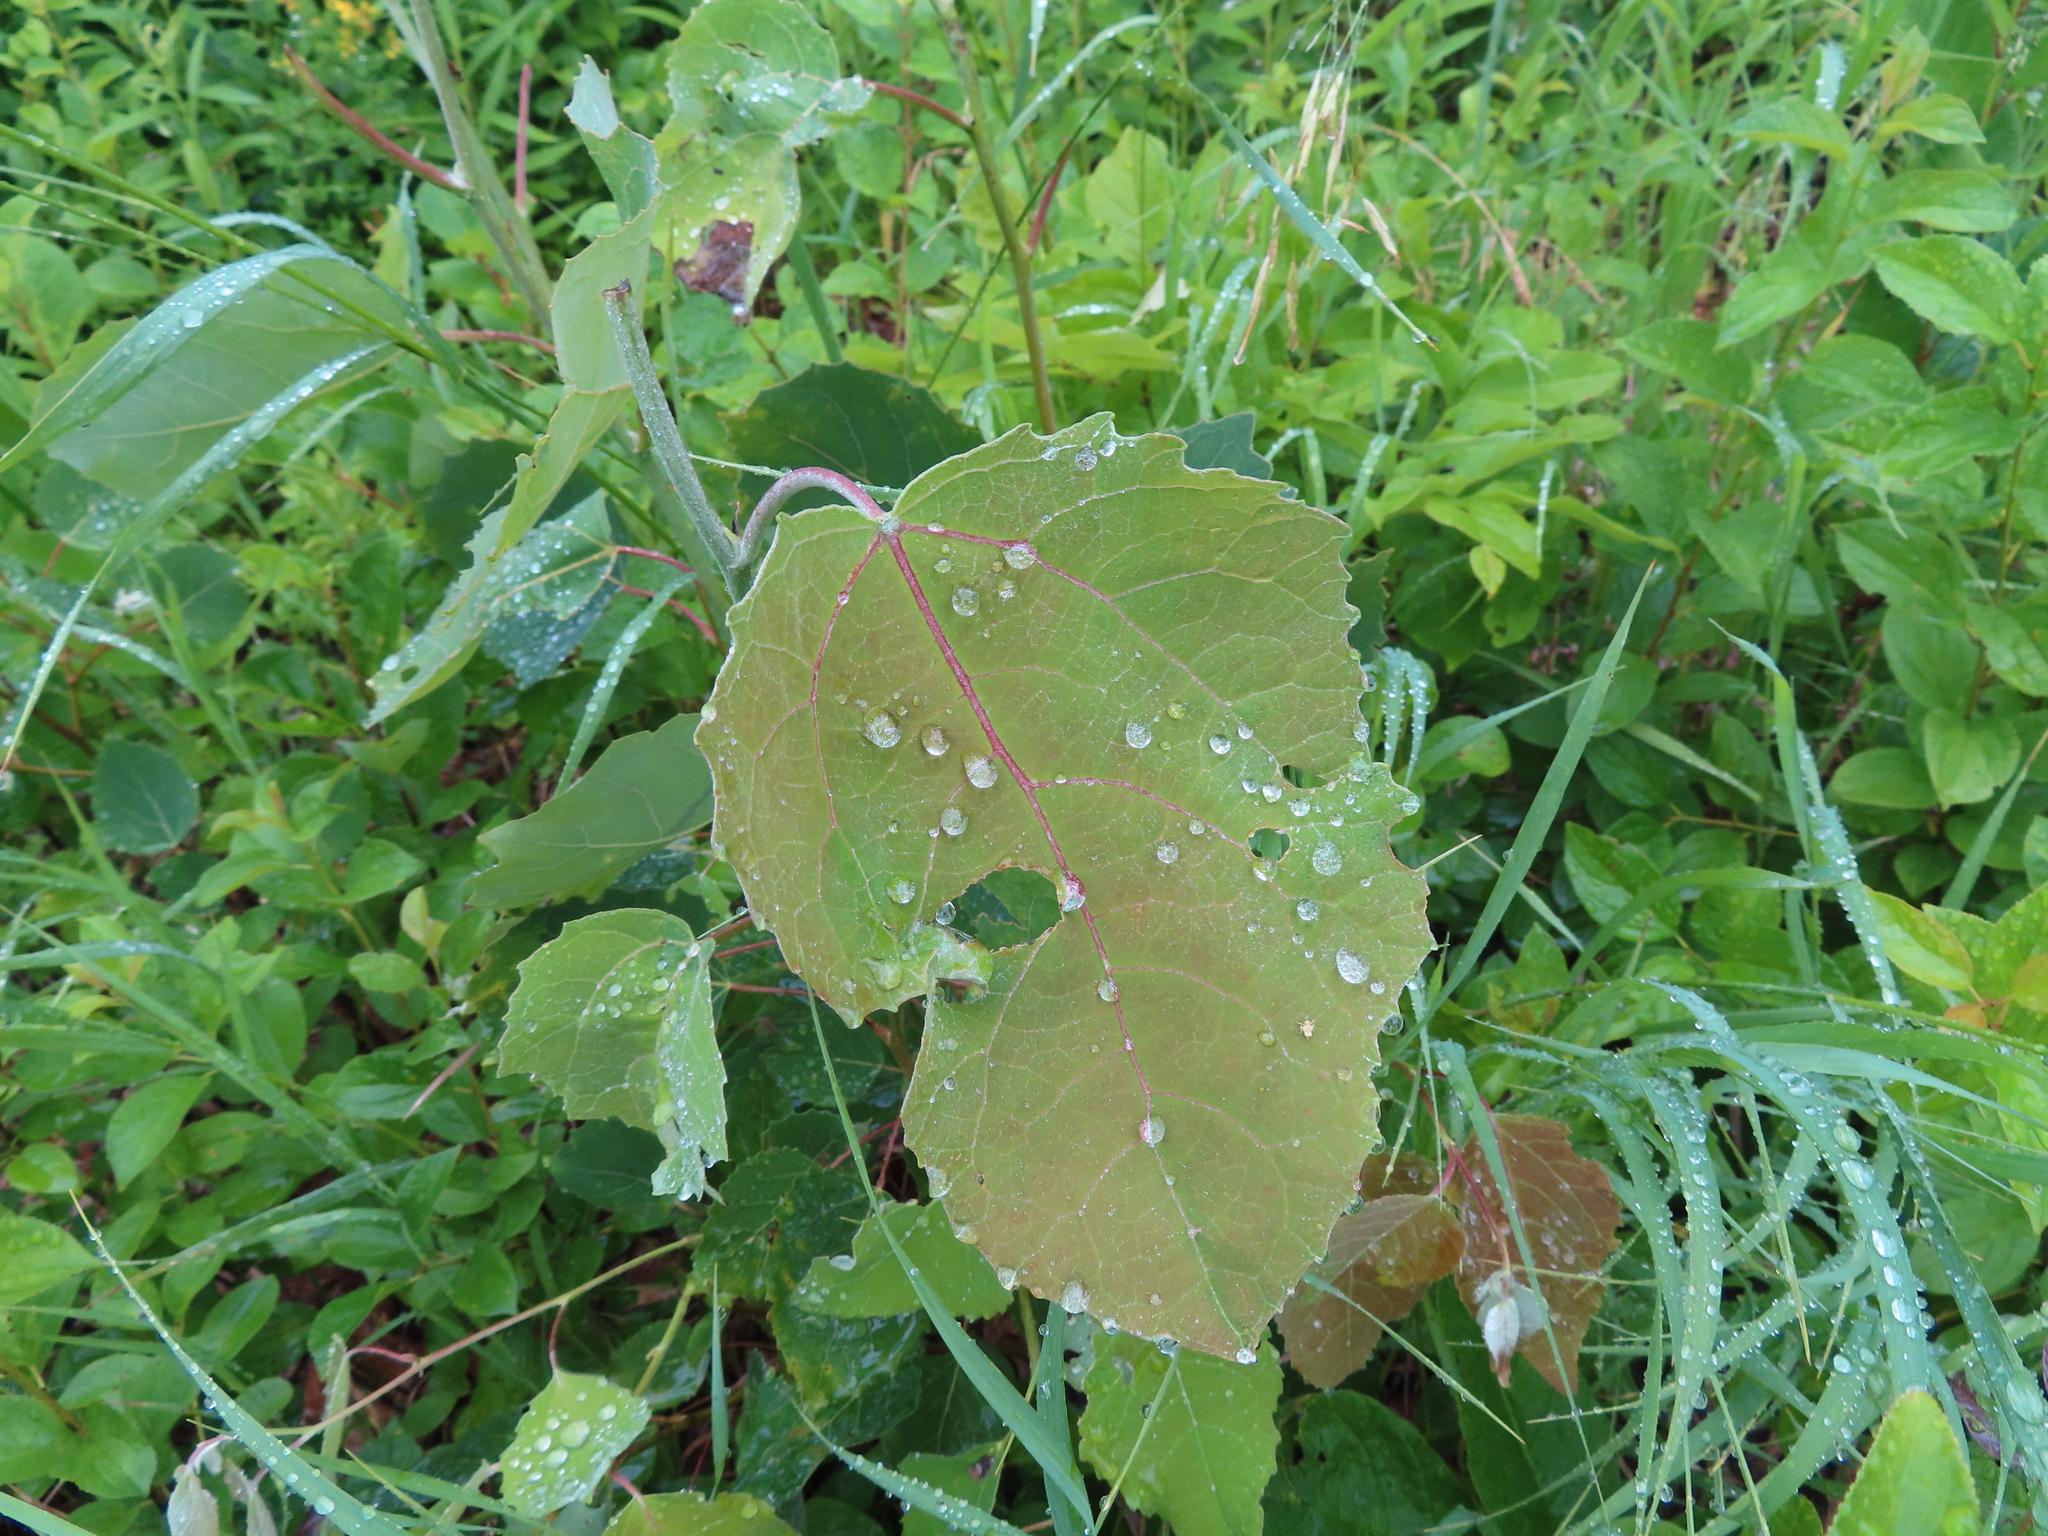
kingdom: Plantae
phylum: Tracheophyta
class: Magnoliopsida
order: Malpighiales
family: Salicaceae
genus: Populus
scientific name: Populus tremuloides
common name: Quaking aspen
